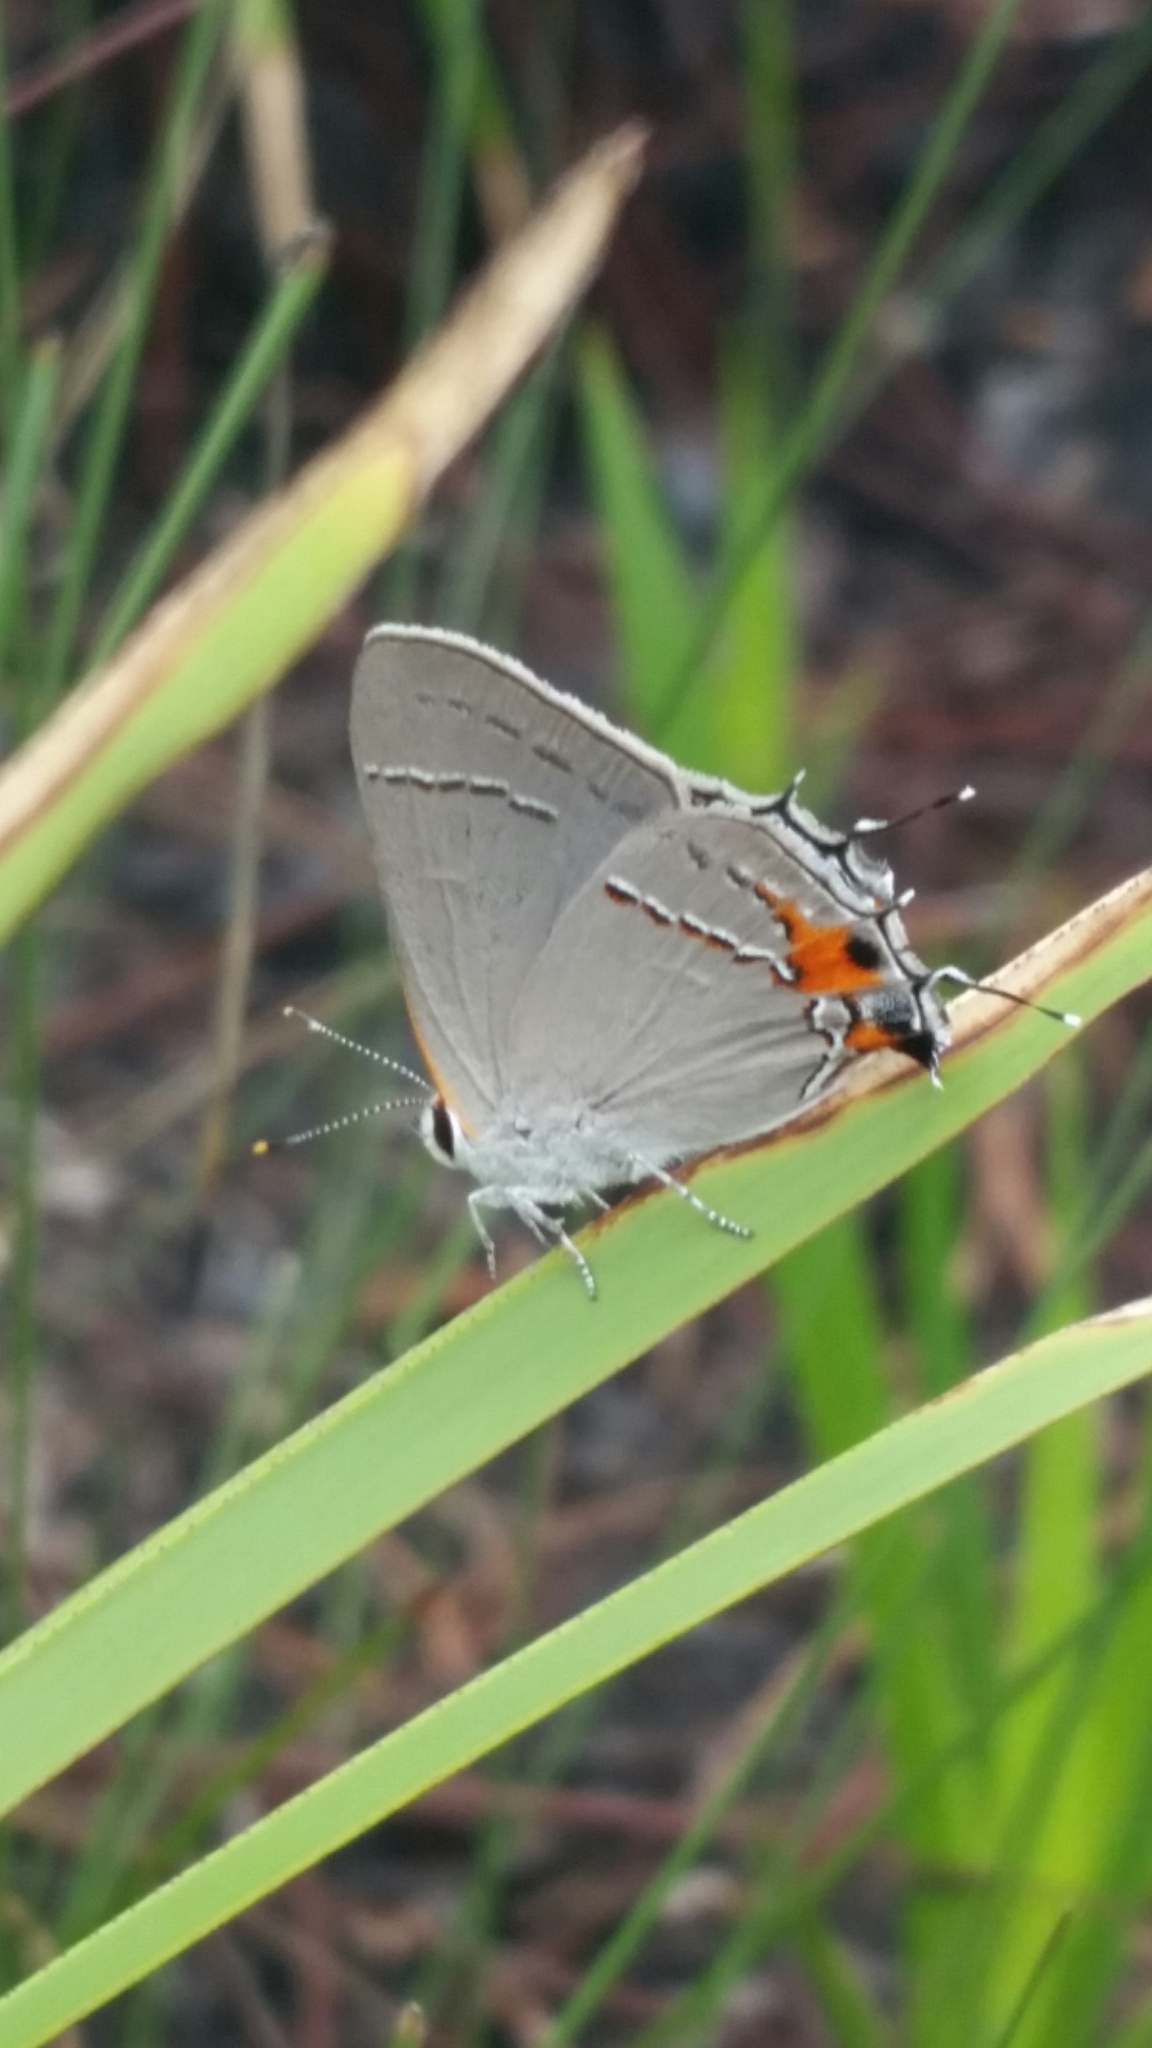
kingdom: Animalia
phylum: Arthropoda
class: Insecta
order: Lepidoptera
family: Lycaenidae
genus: Strymon
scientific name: Strymon melinus
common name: Gray hairstreak
